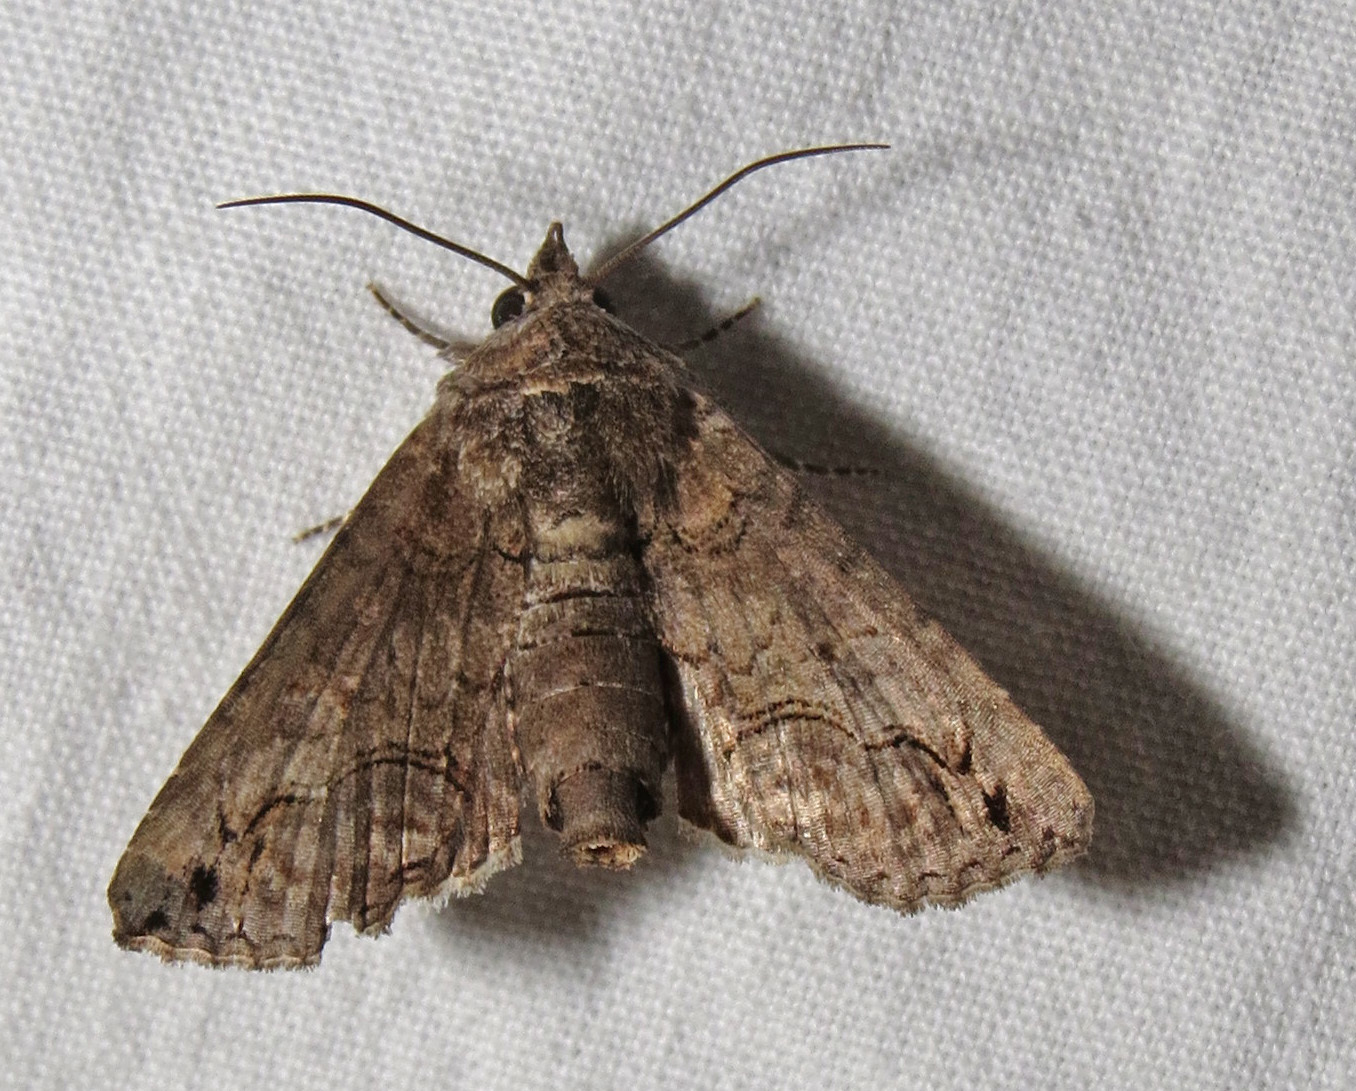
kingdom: Animalia
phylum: Arthropoda
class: Insecta
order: Lepidoptera
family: Euteliidae
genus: Paectes
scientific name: Paectes abrostoloides
